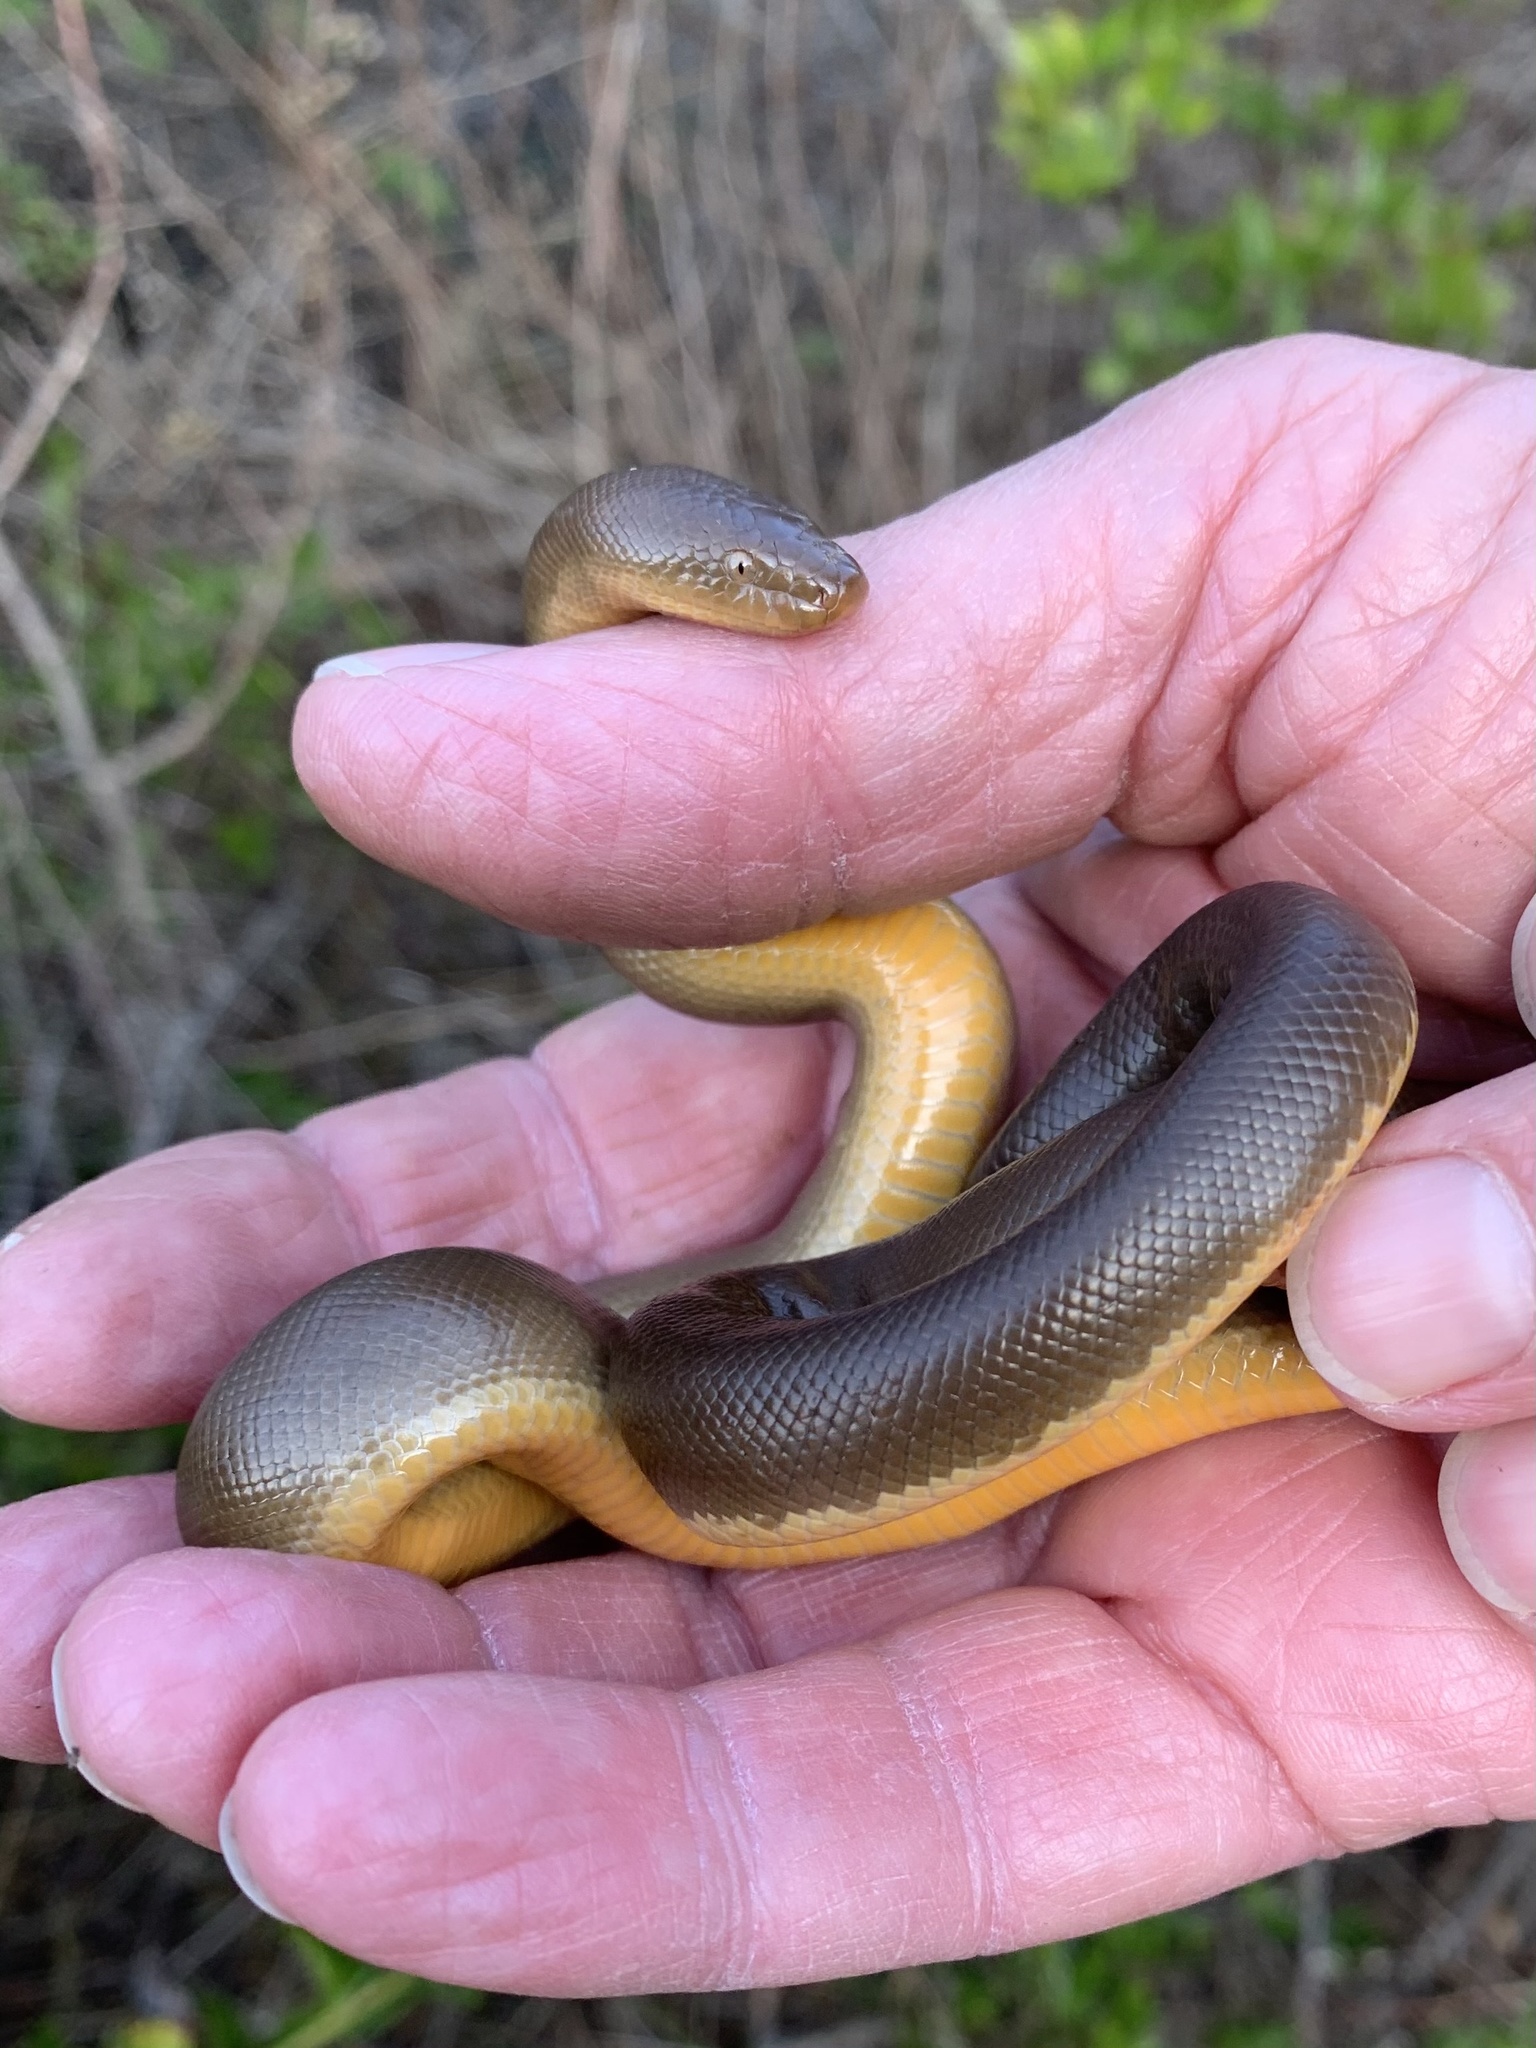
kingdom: Animalia
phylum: Chordata
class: Squamata
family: Boidae
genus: Charina
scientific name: Charina bottae
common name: Northern rubber boa
